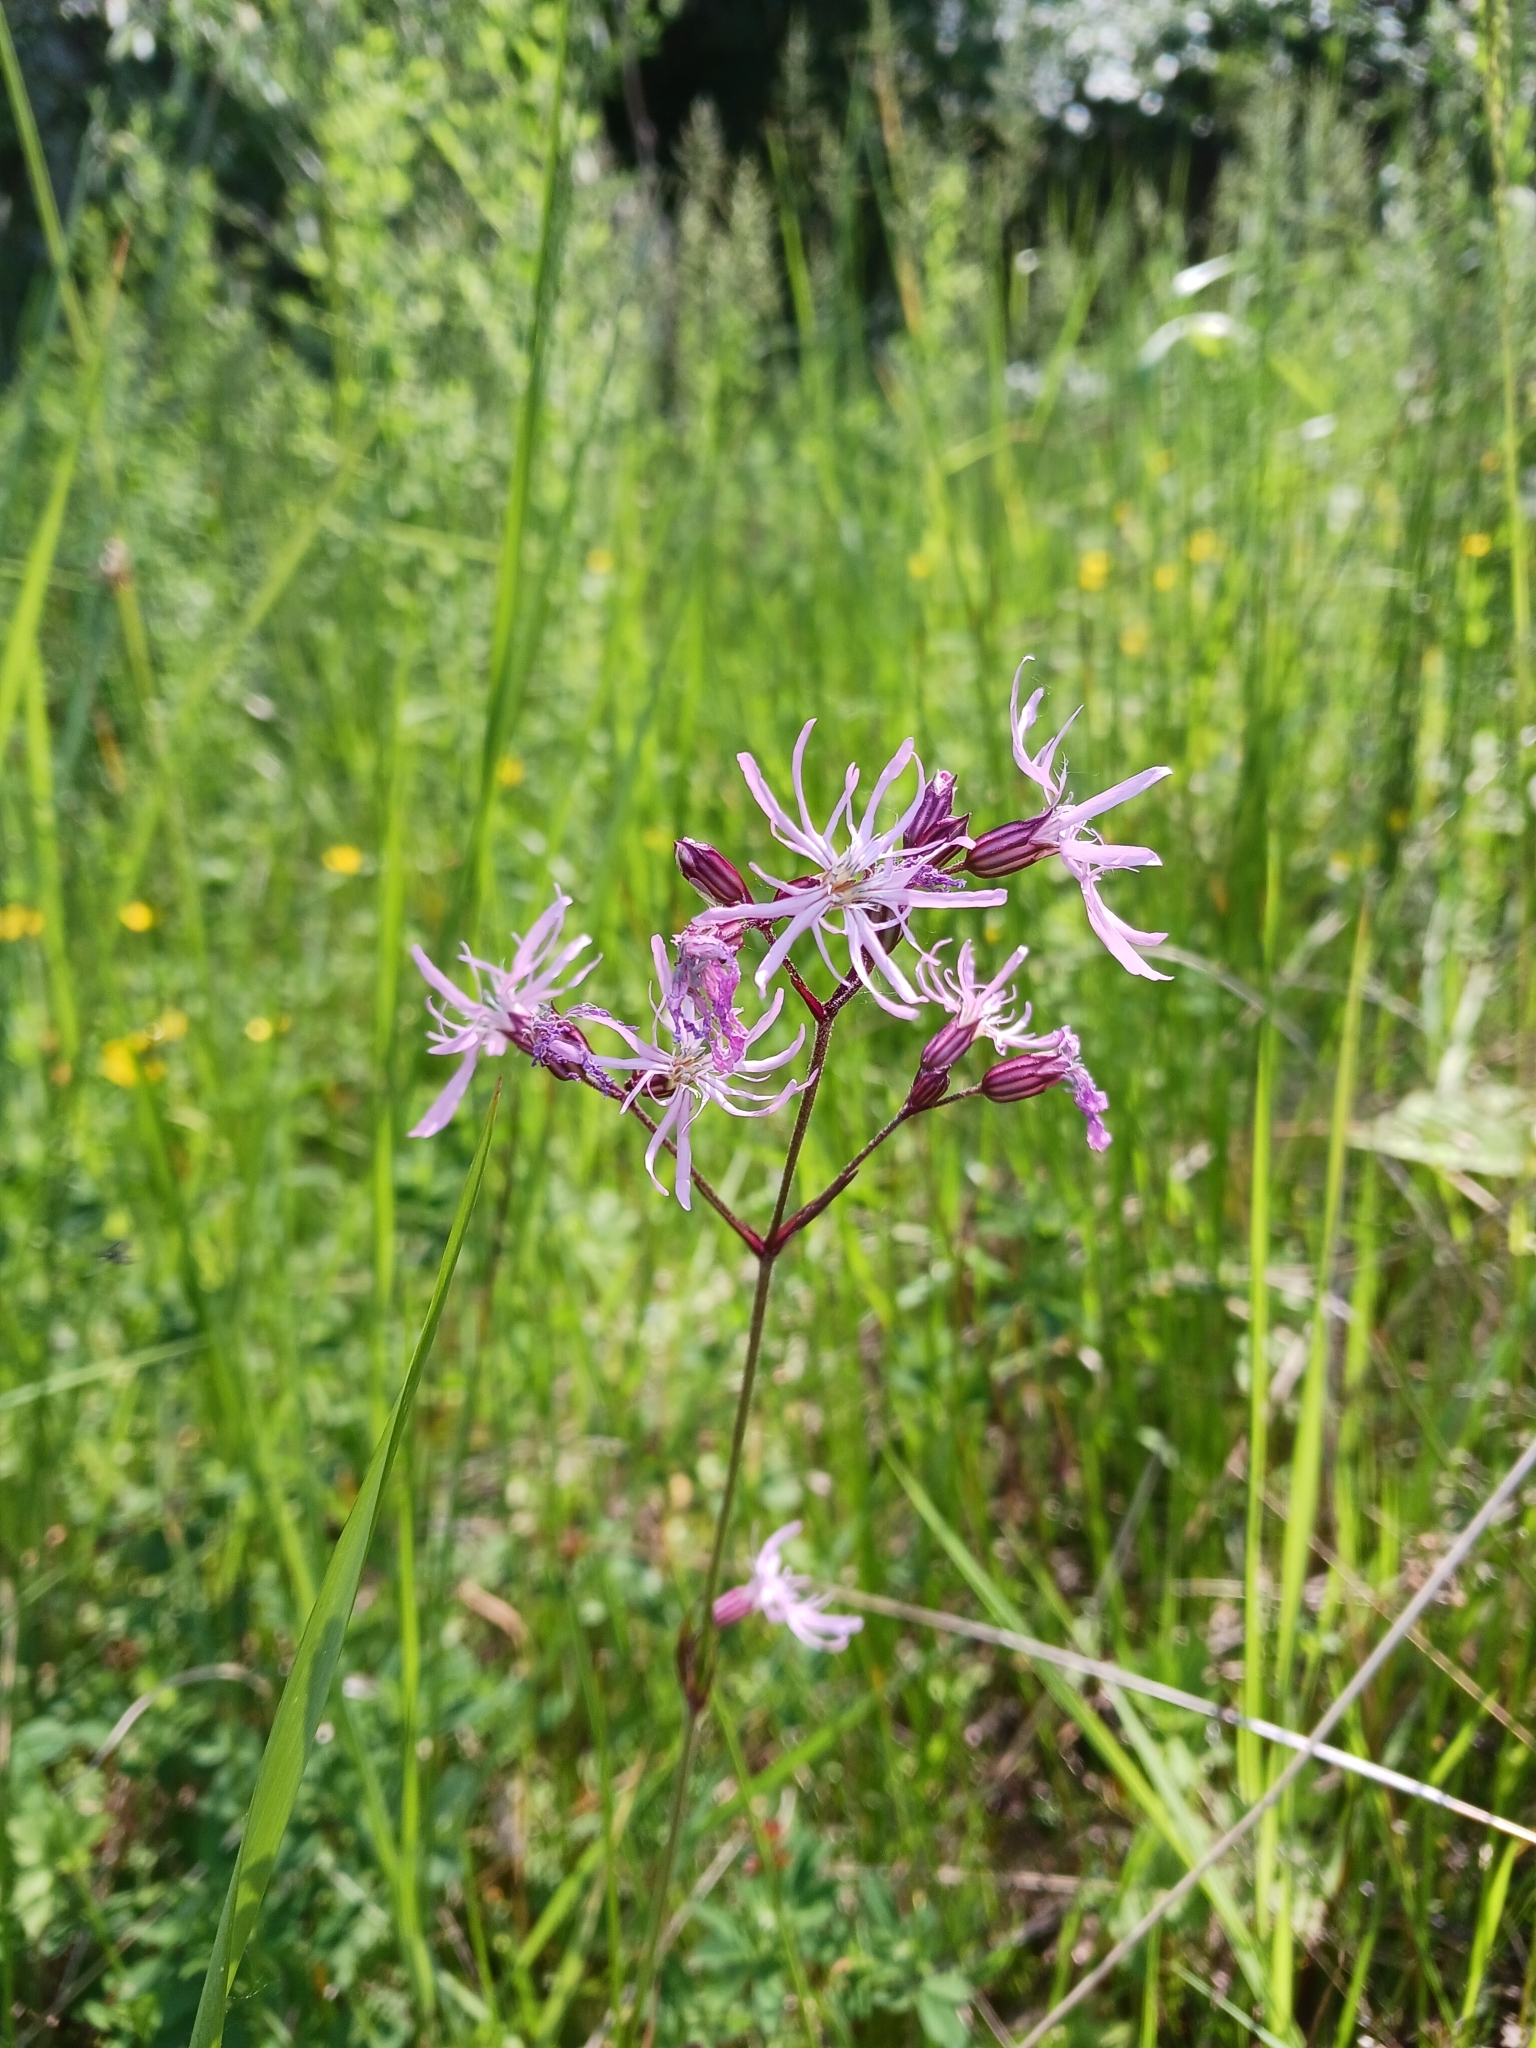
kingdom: Plantae
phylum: Tracheophyta
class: Magnoliopsida
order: Caryophyllales
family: Caryophyllaceae
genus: Silene
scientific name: Silene flos-cuculi
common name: Ragged-robin
